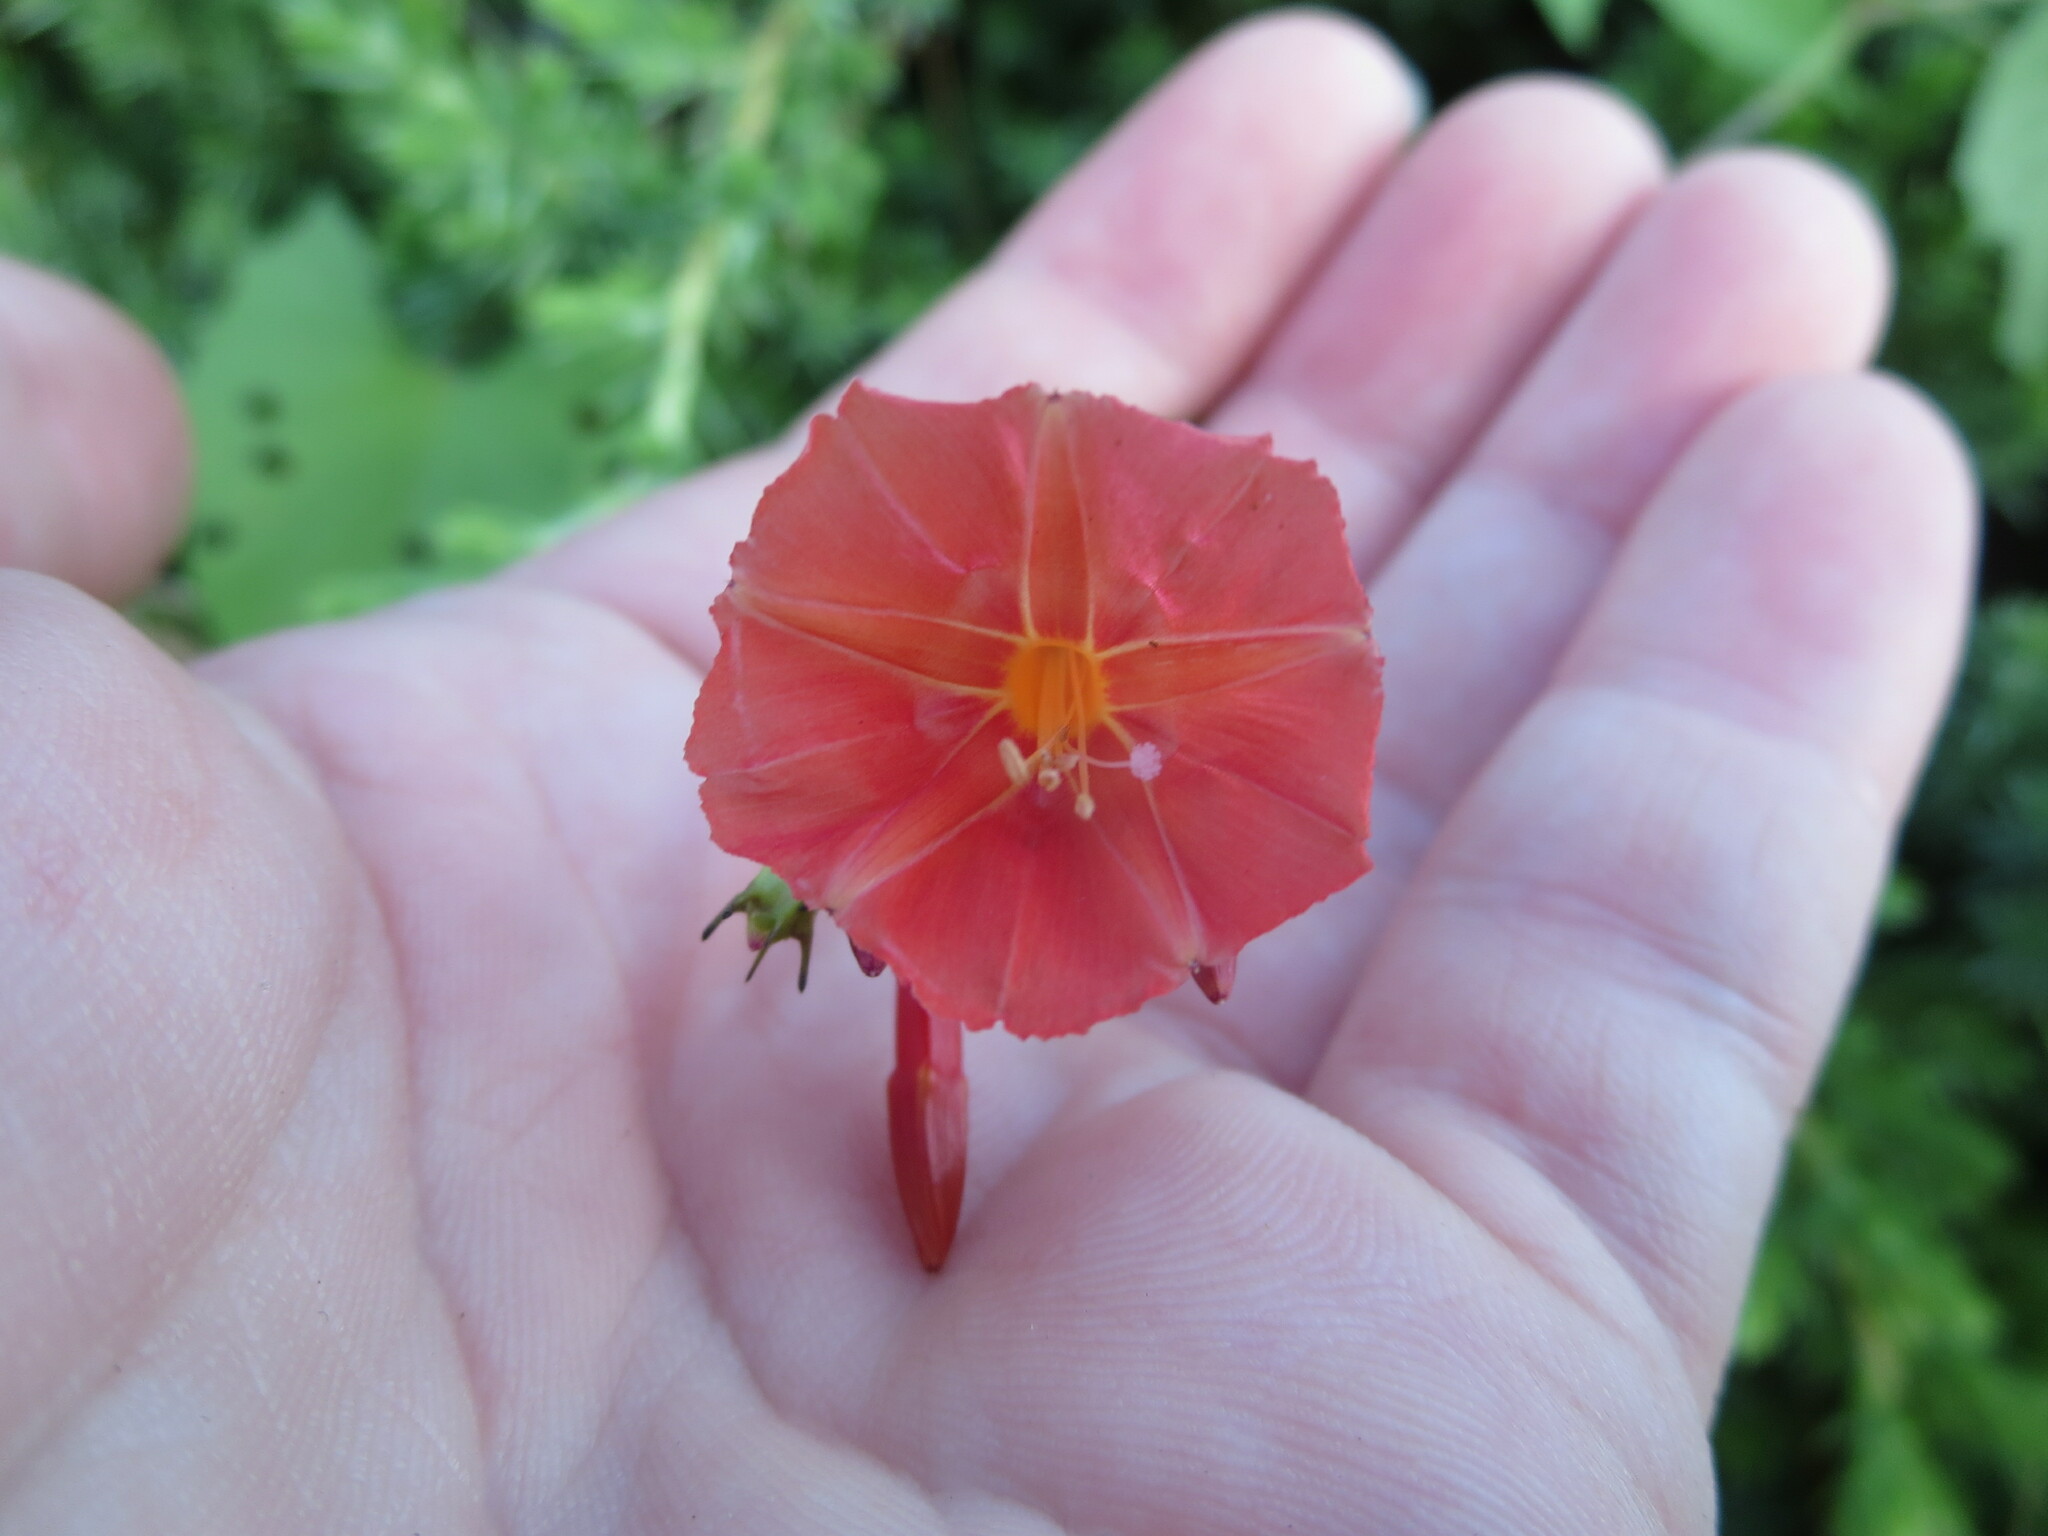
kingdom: Plantae
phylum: Tracheophyta
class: Magnoliopsida
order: Solanales
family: Convolvulaceae
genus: Ipomoea
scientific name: Ipomoea hederifolia
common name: Ivy-leaf morning-glory
